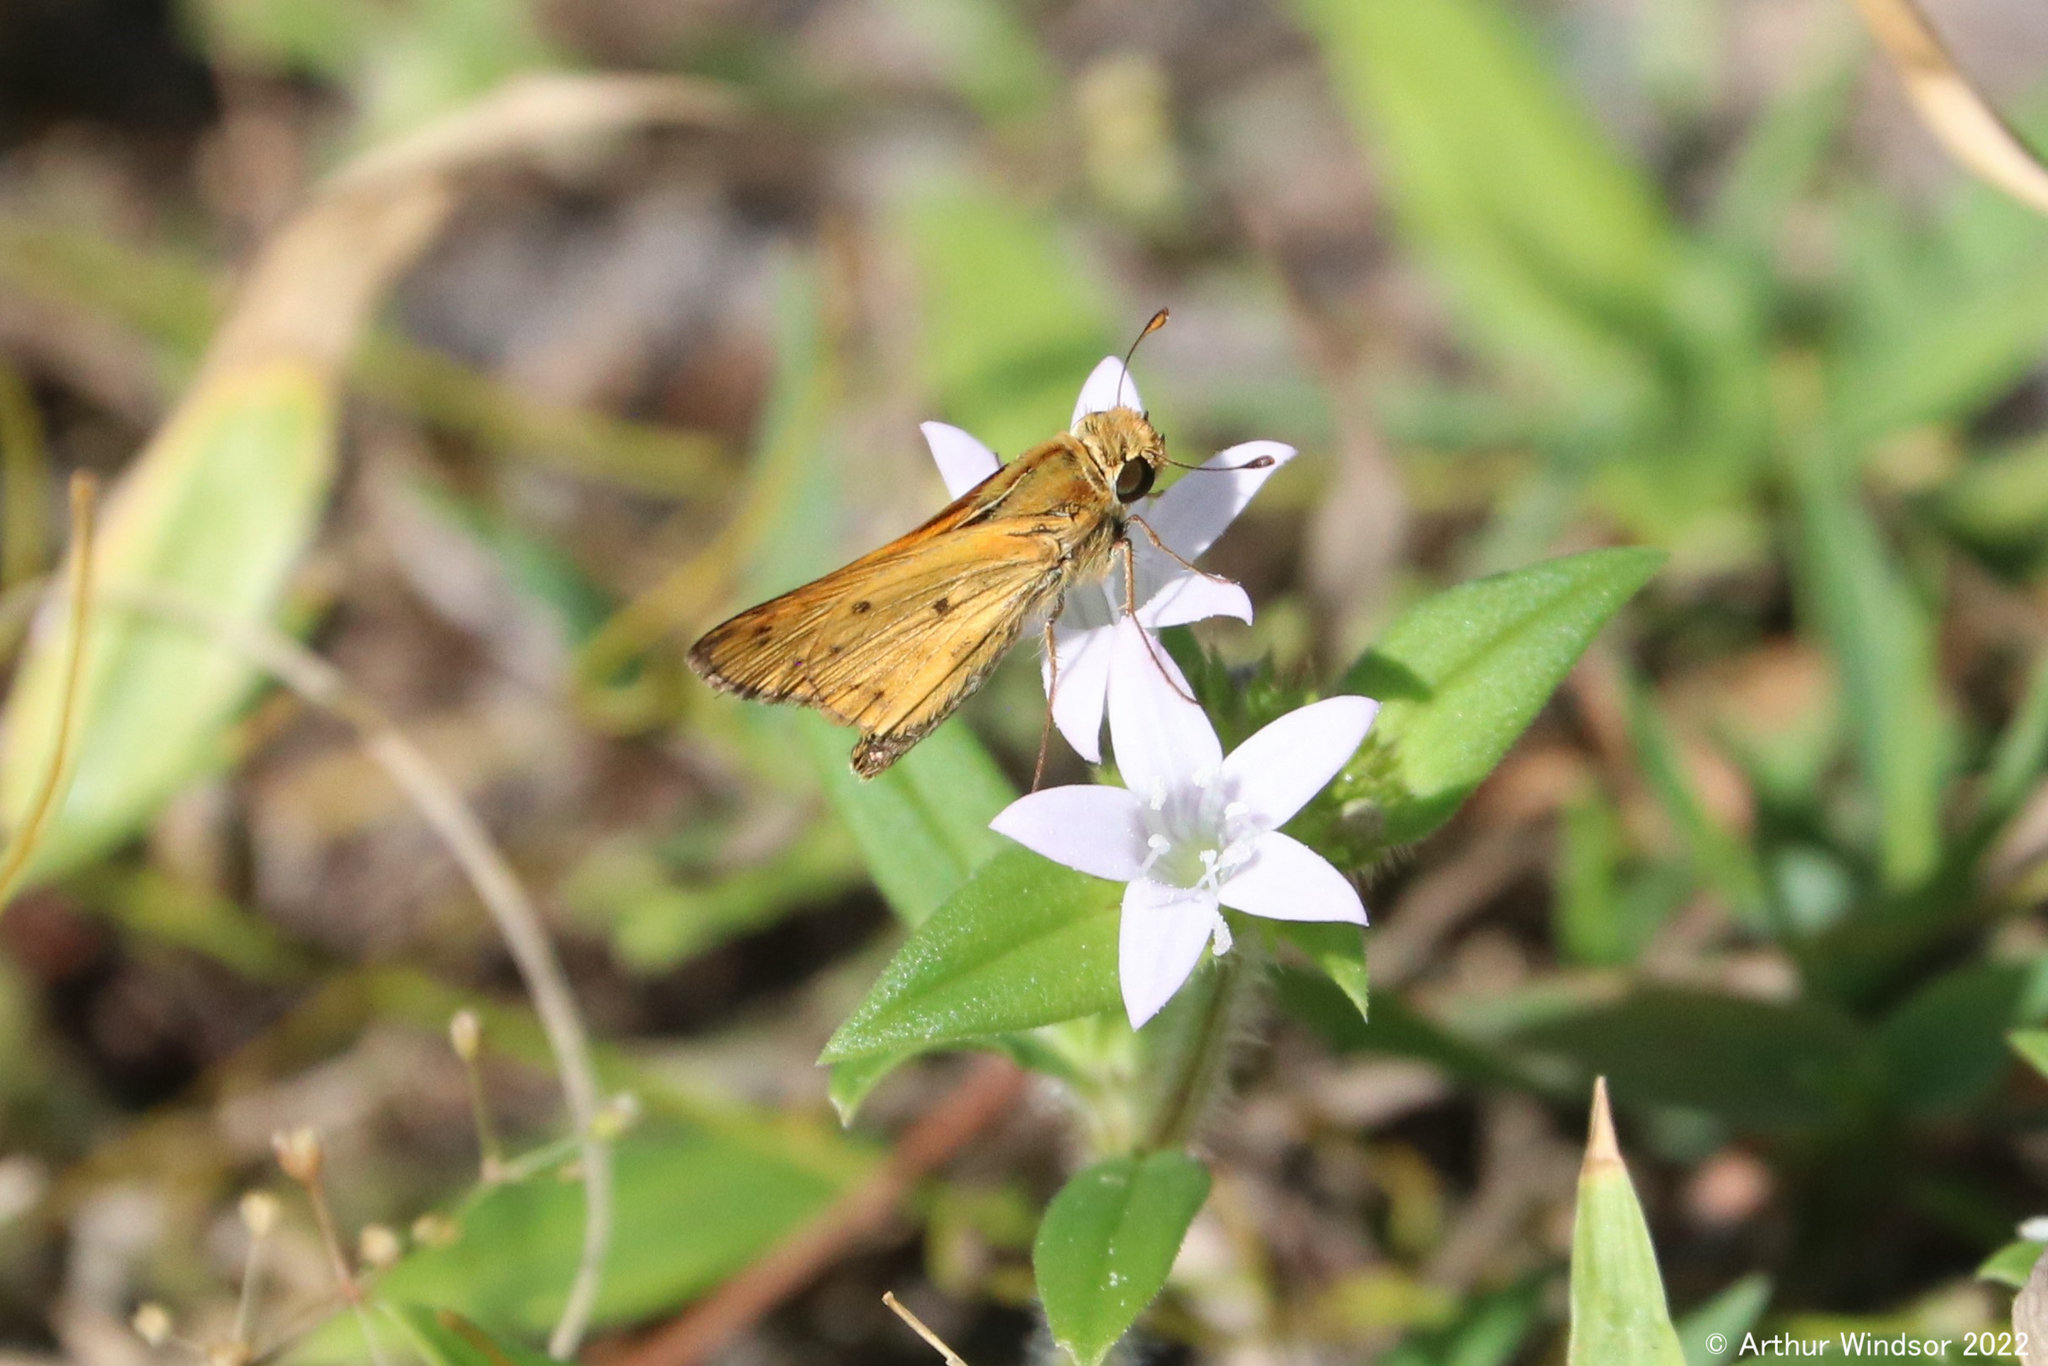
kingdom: Animalia
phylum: Arthropoda
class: Insecta
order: Lepidoptera
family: Hesperiidae
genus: Hylephila
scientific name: Hylephila phyleus
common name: Fiery skipper
